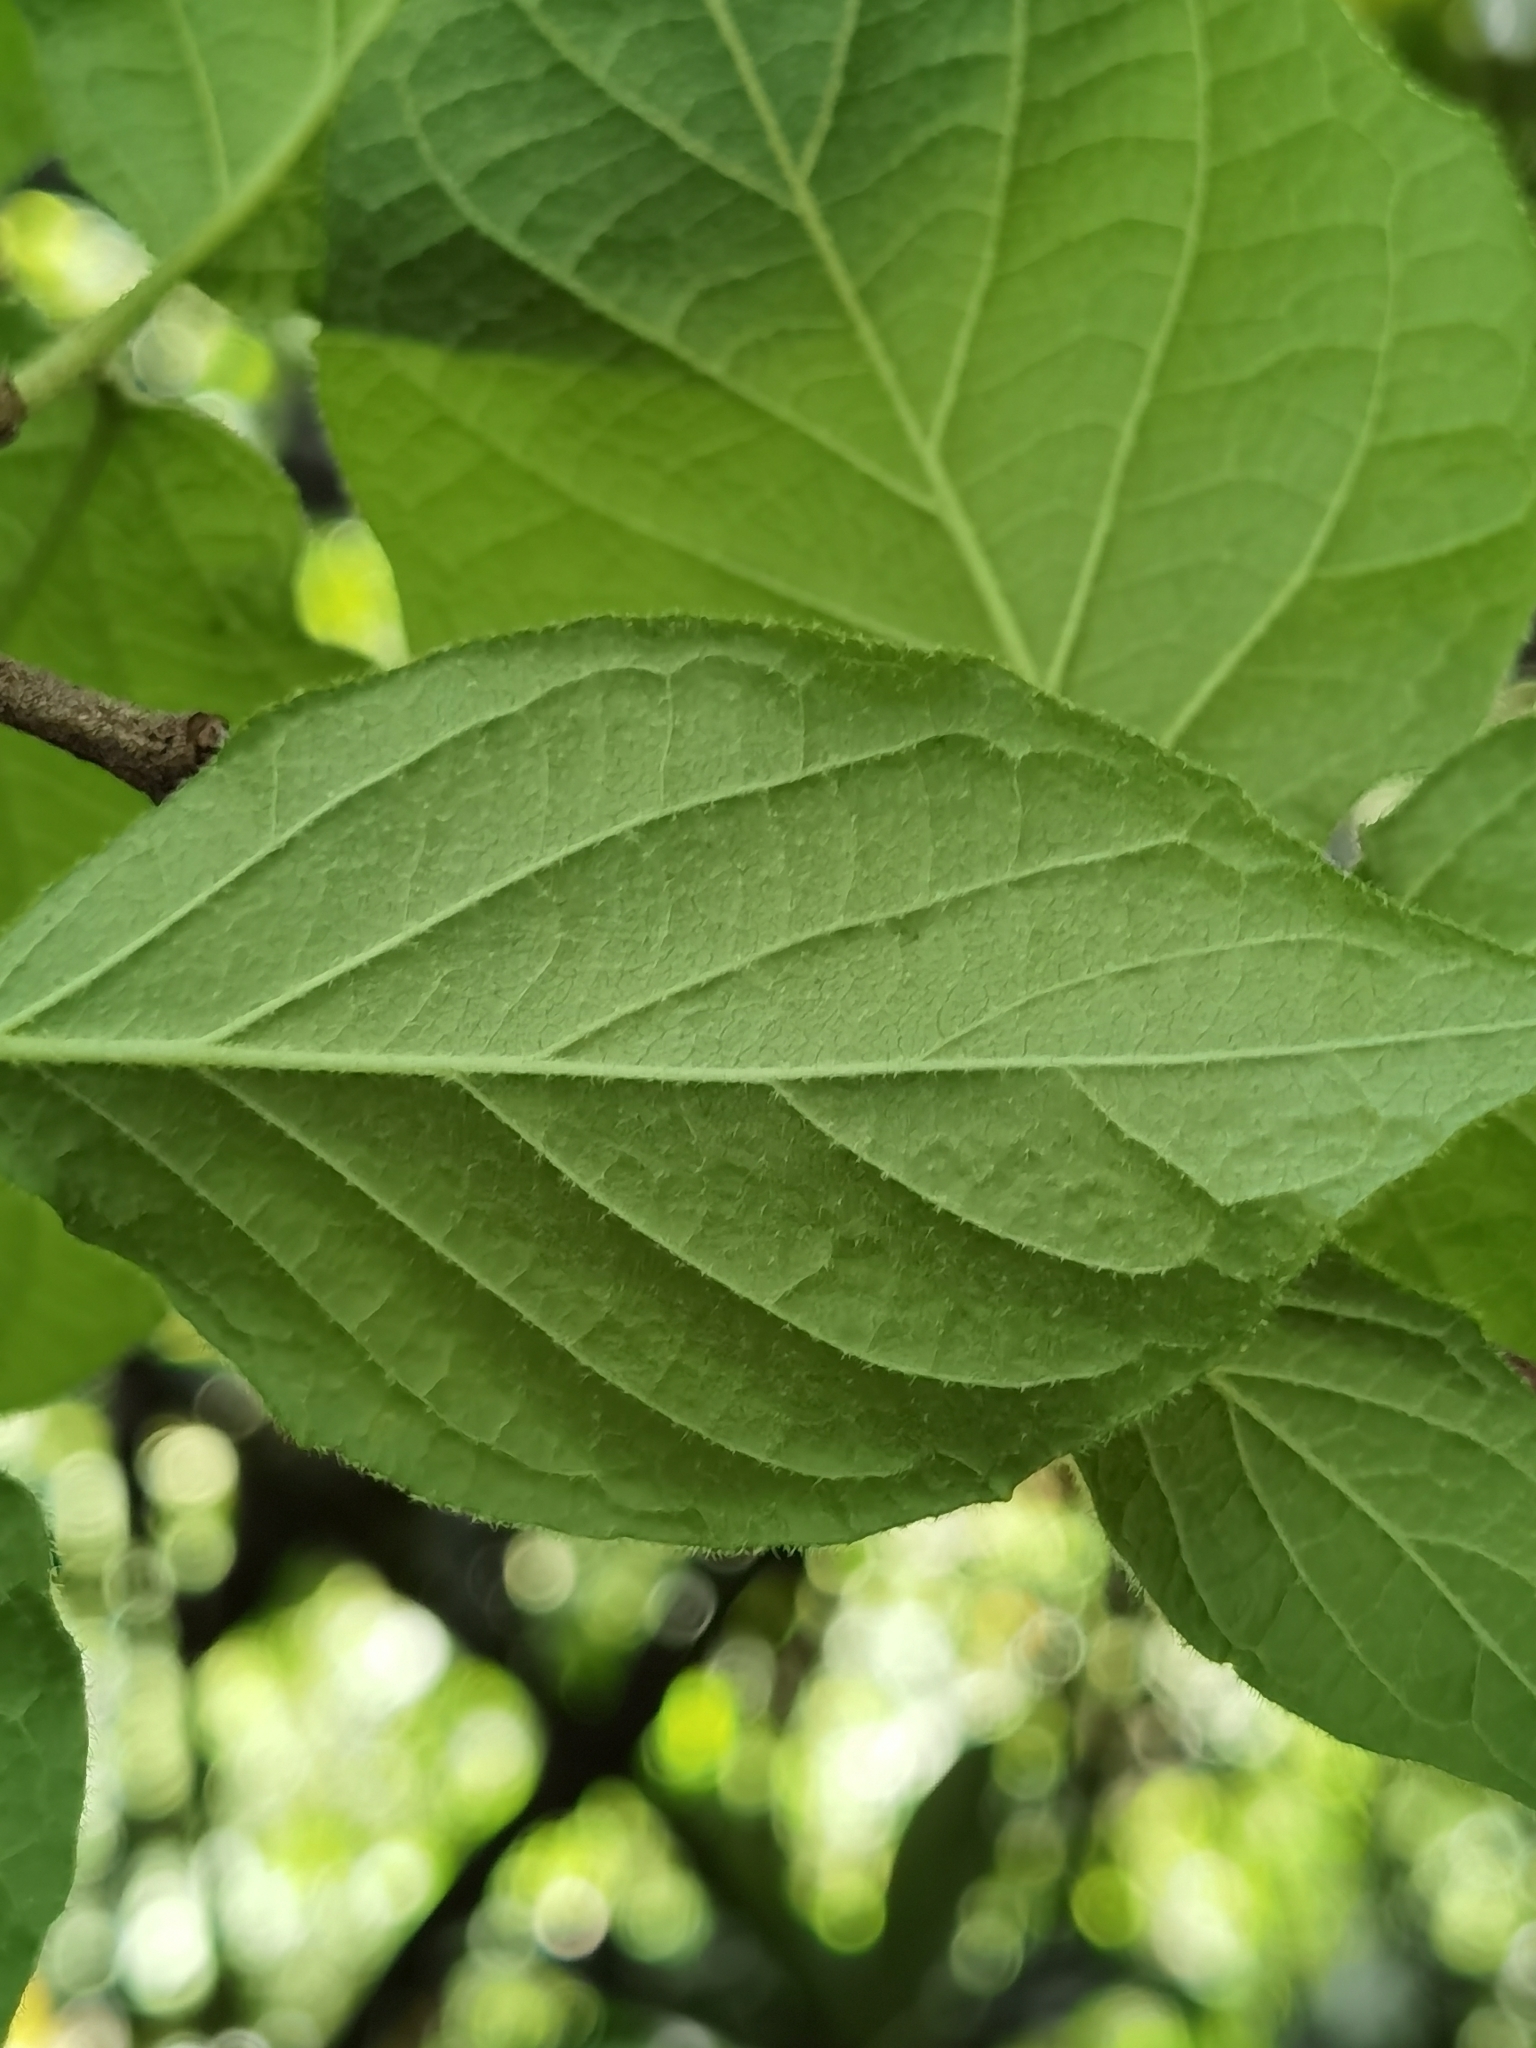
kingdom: Plantae
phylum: Tracheophyta
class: Magnoliopsida
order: Dipsacales
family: Viburnaceae
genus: Viburnum
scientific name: Viburnum stellatotomentosum
